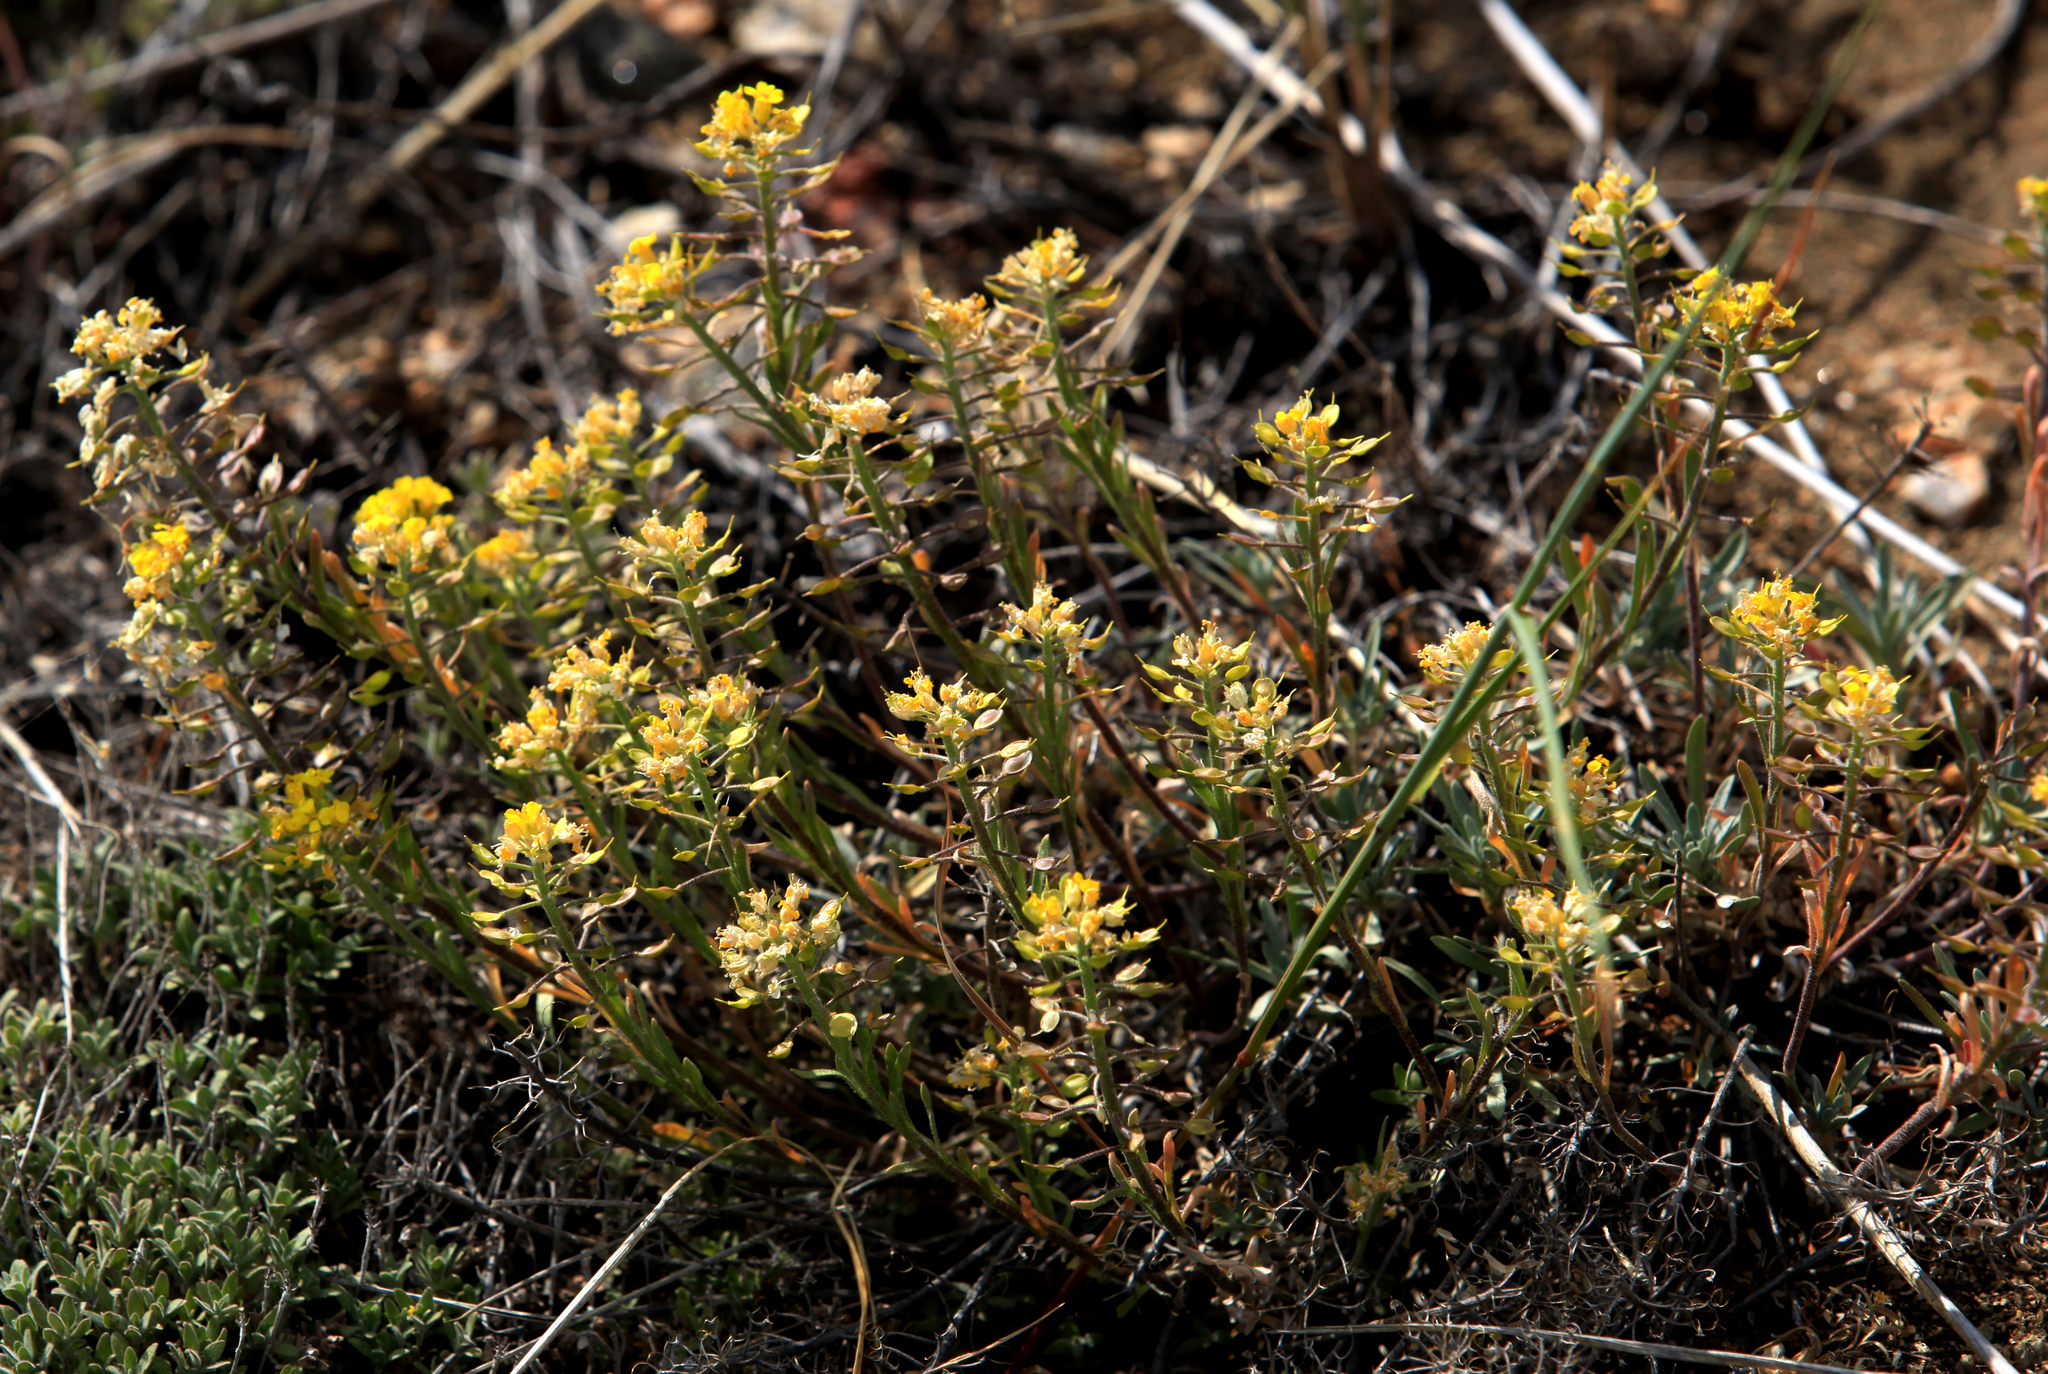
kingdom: Plantae
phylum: Tracheophyta
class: Magnoliopsida
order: Brassicales
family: Brassicaceae
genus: Alyssum
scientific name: Alyssum lenense
